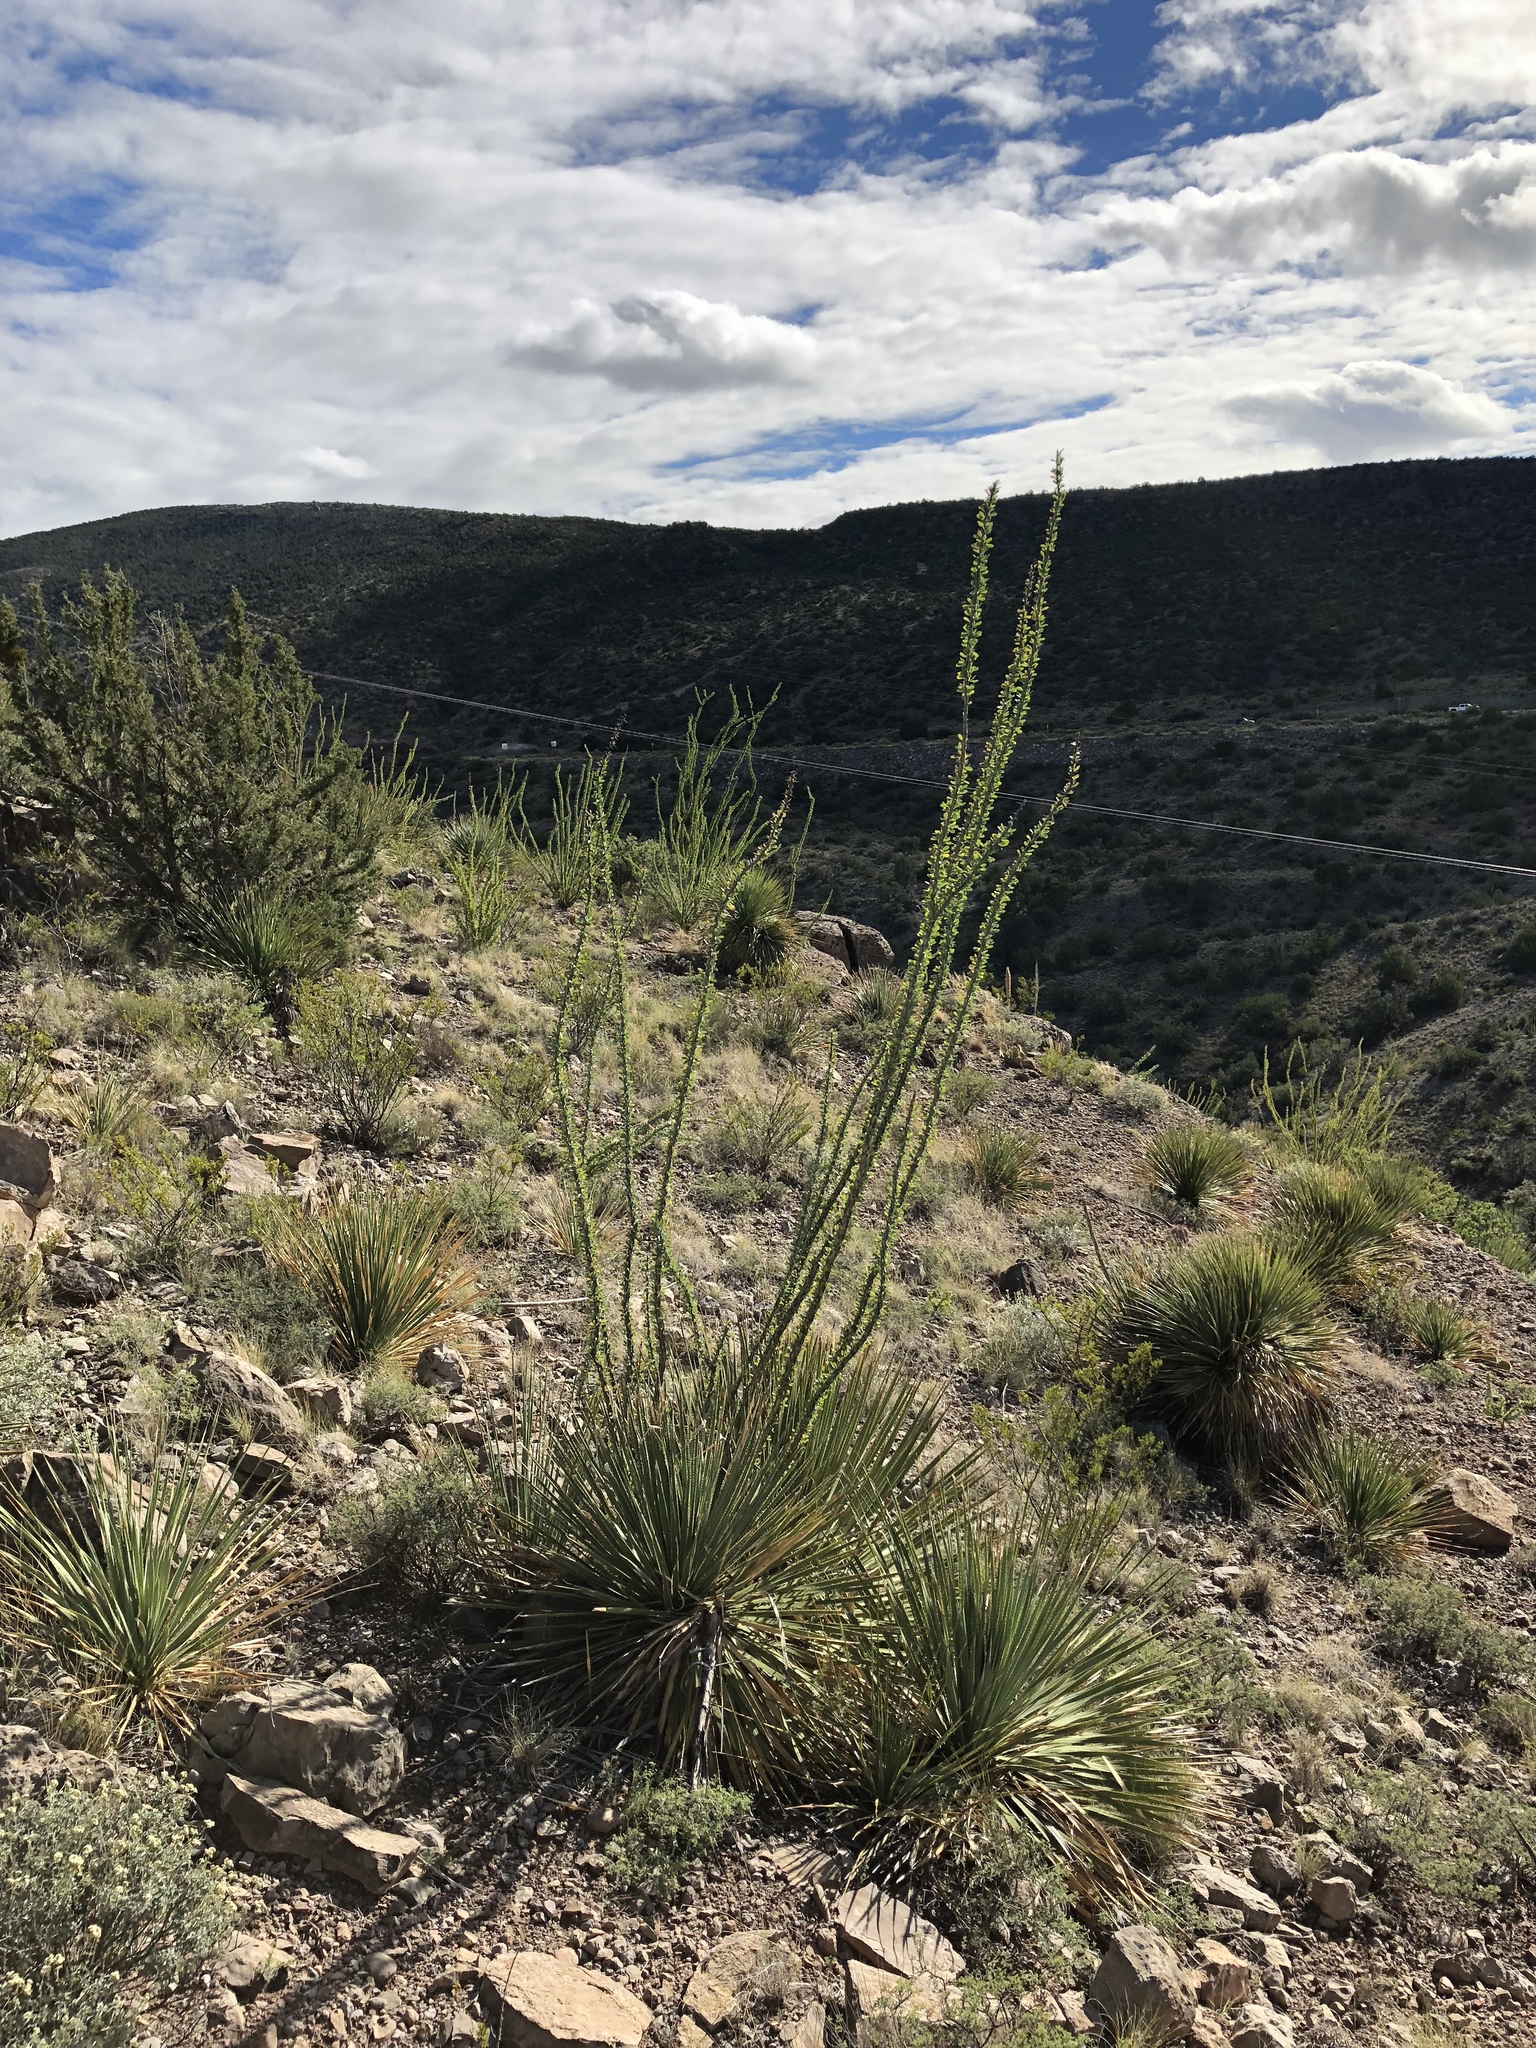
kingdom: Plantae
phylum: Tracheophyta
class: Magnoliopsida
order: Ericales
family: Fouquieriaceae
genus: Fouquieria
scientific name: Fouquieria splendens
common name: Vine-cactus
